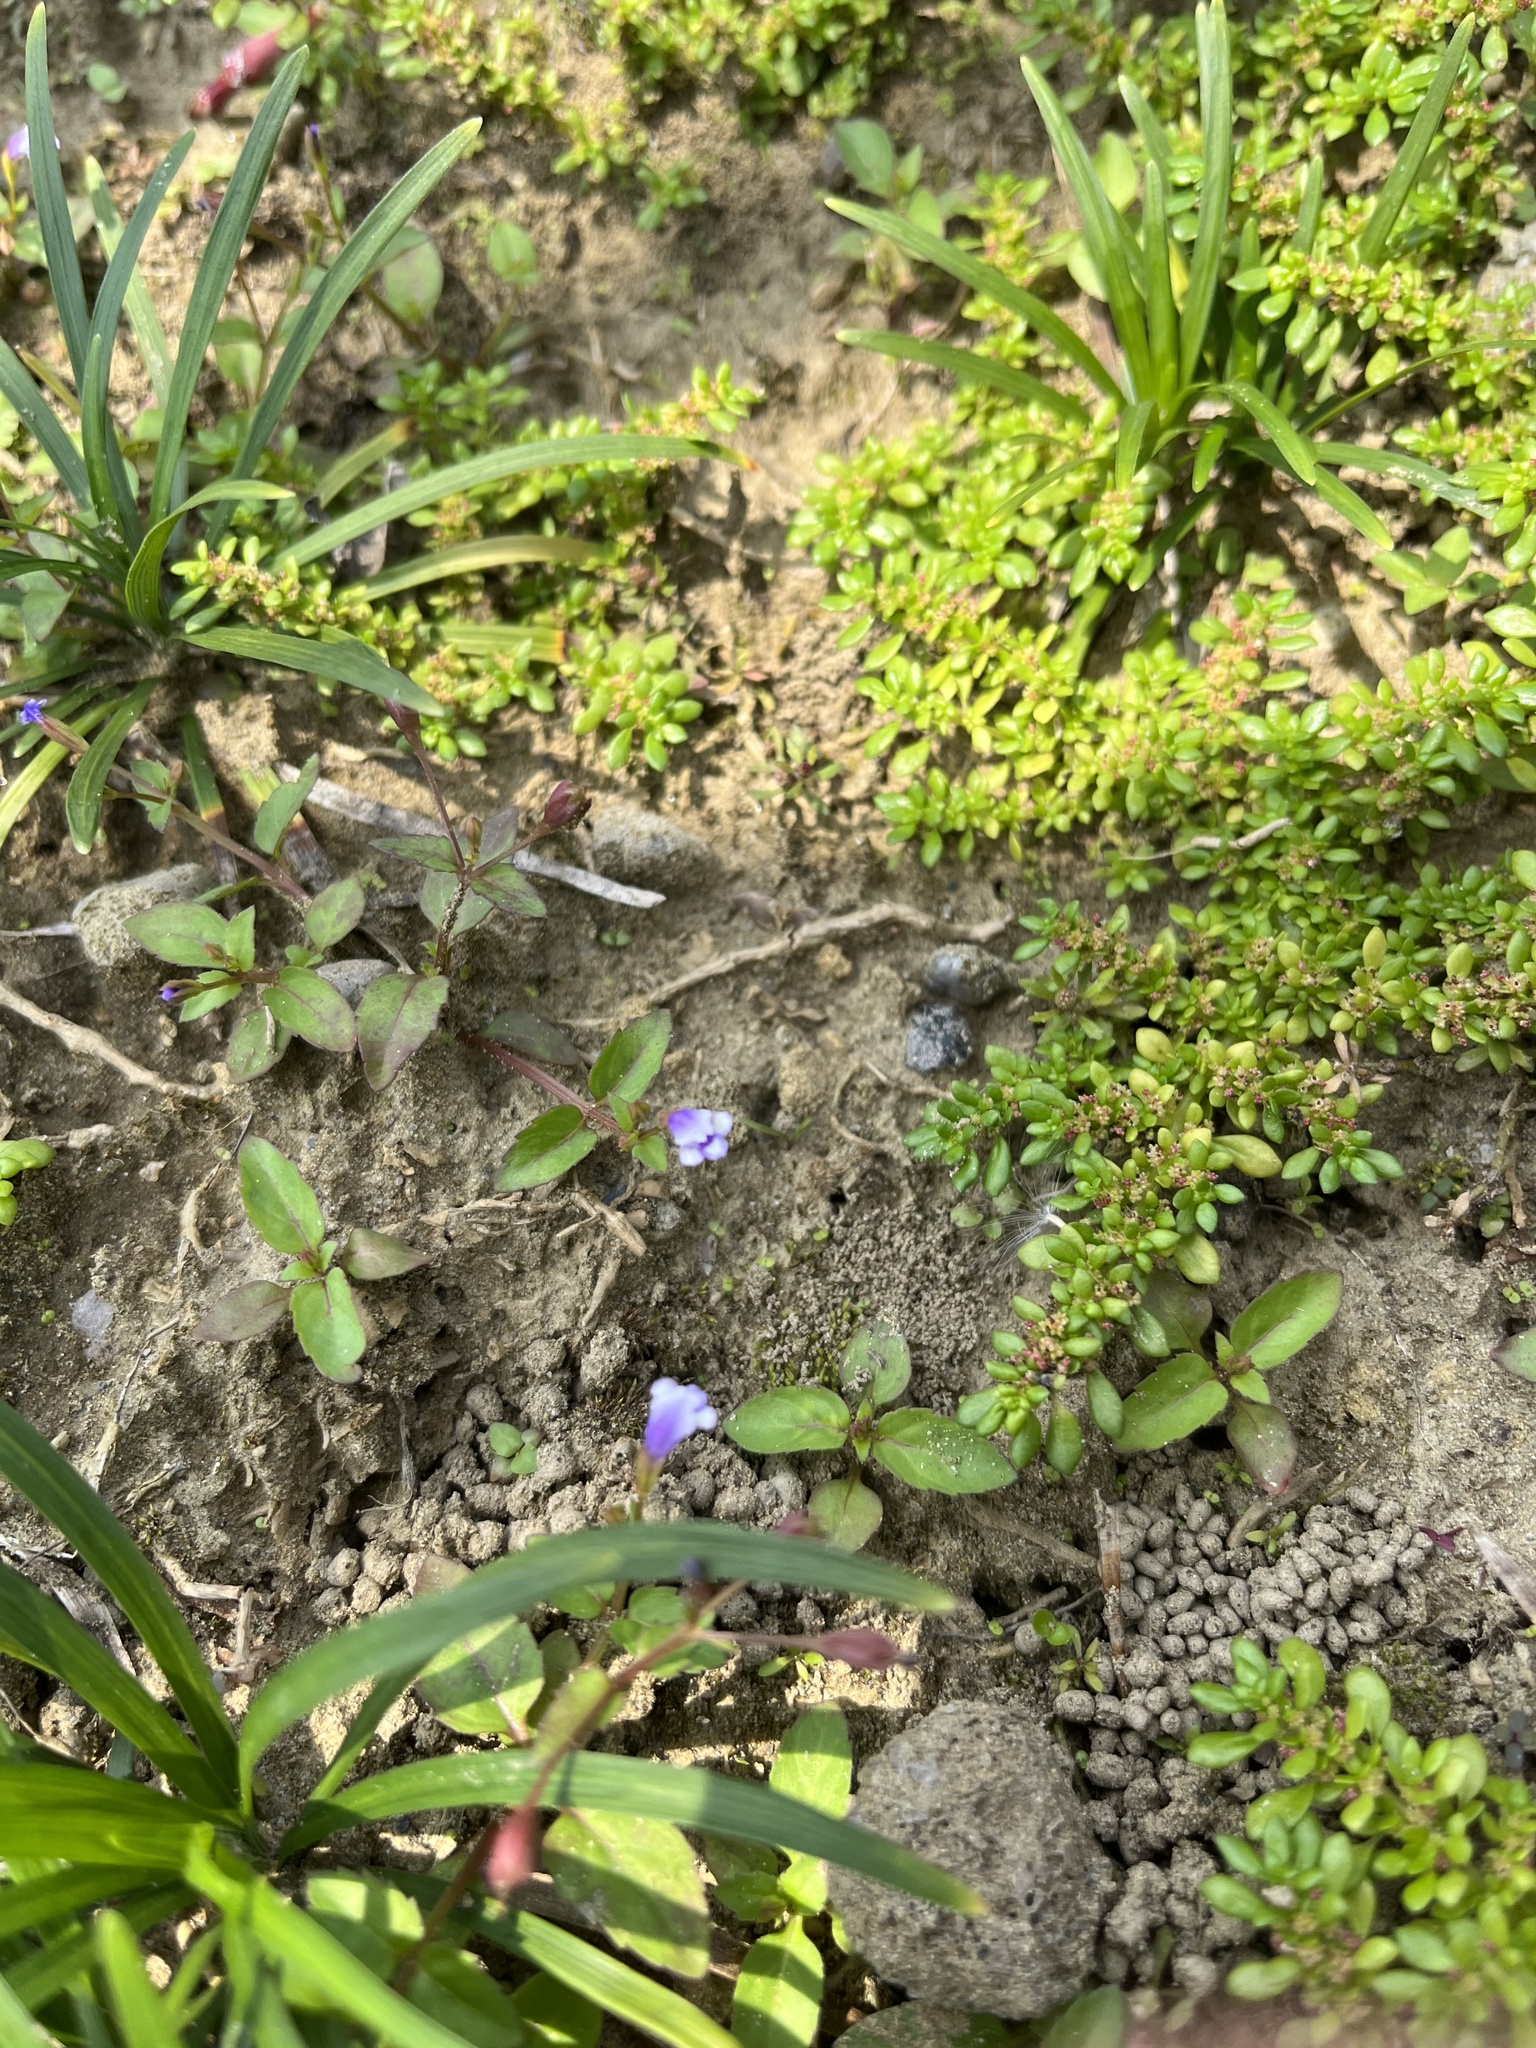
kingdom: Plantae
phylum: Tracheophyta
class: Magnoliopsida
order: Lamiales
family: Linderniaceae
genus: Torenia
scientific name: Torenia crustacea
